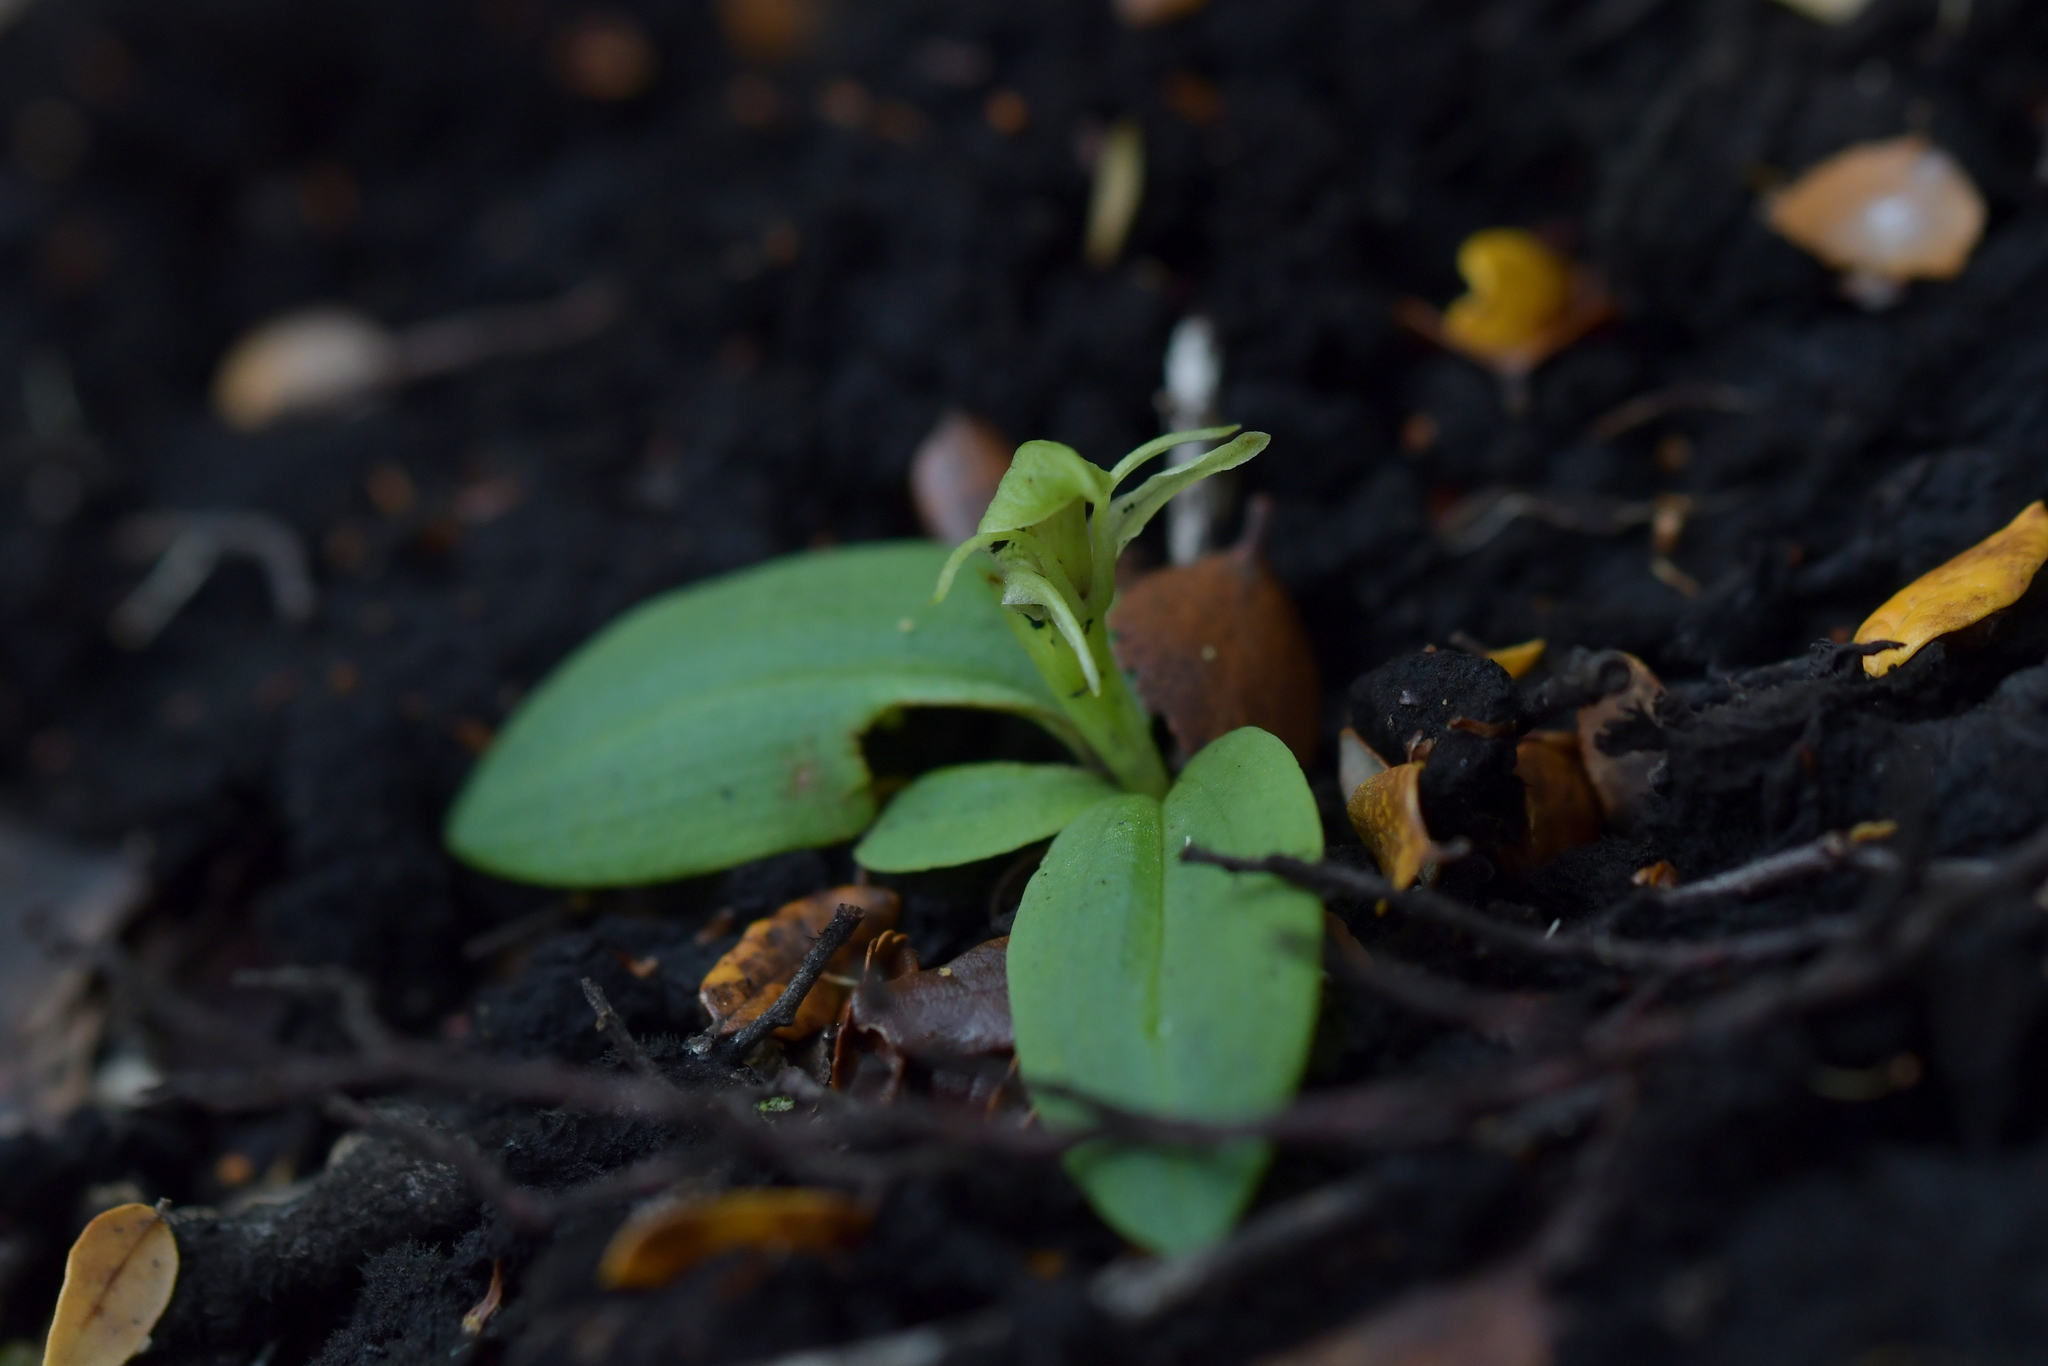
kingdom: Plantae
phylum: Tracheophyta
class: Liliopsida
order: Asparagales
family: Orchidaceae
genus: Chiloglottis
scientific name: Chiloglottis cornuta
